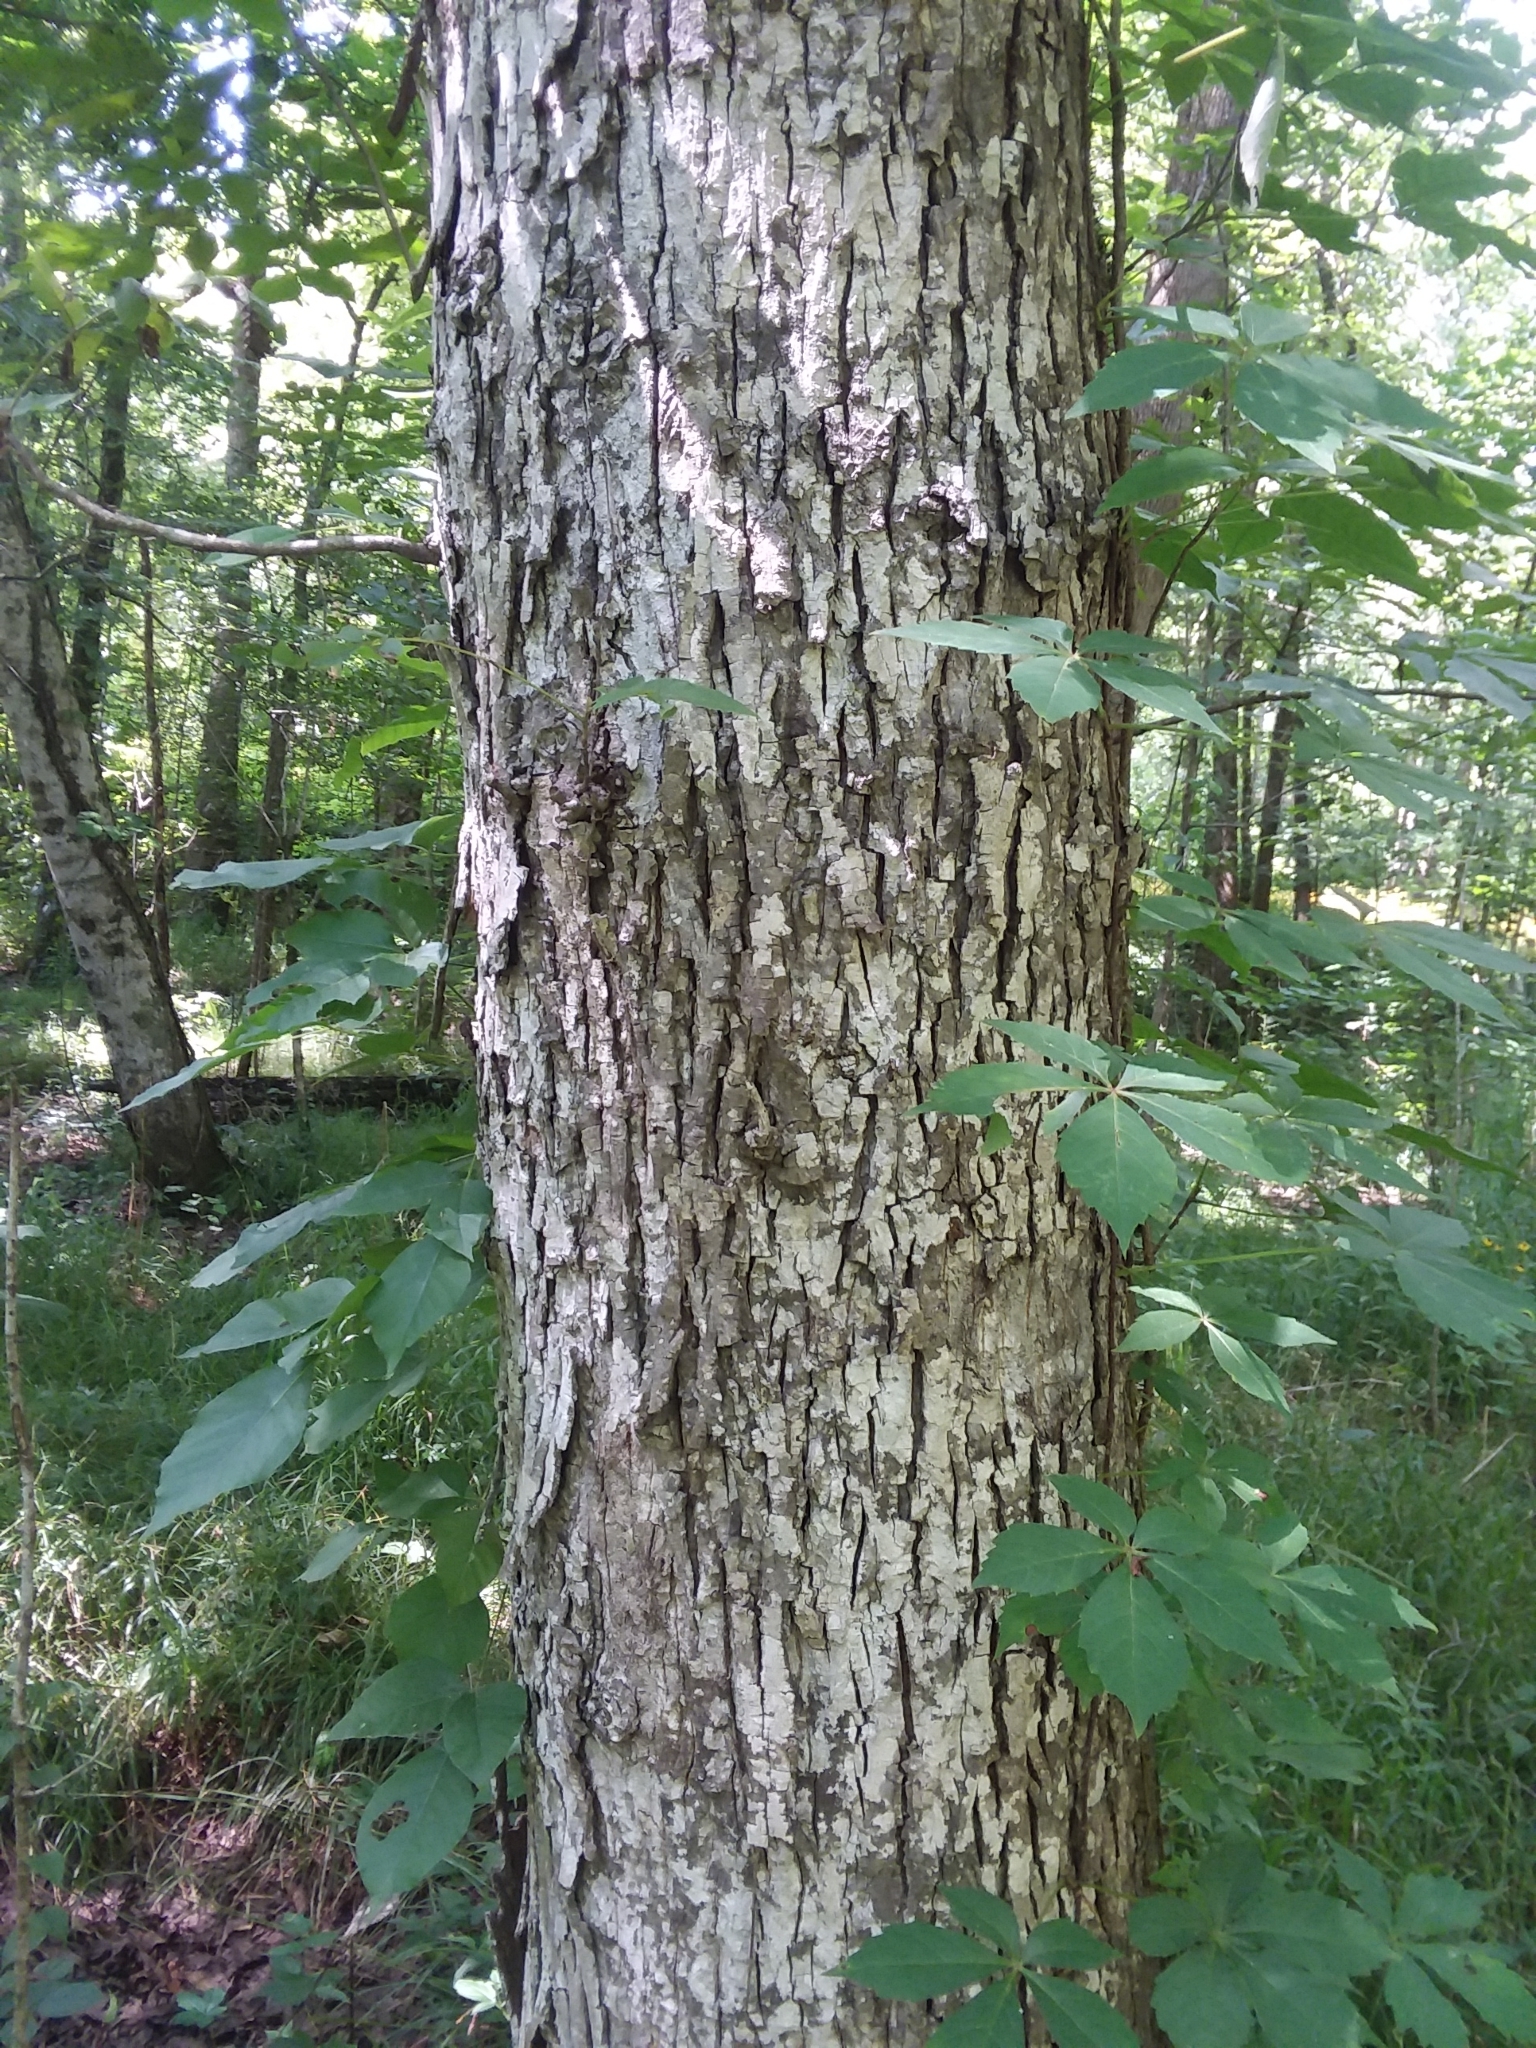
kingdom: Plantae
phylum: Tracheophyta
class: Magnoliopsida
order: Fagales
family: Juglandaceae
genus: Carya
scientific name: Carya myristiciformis
